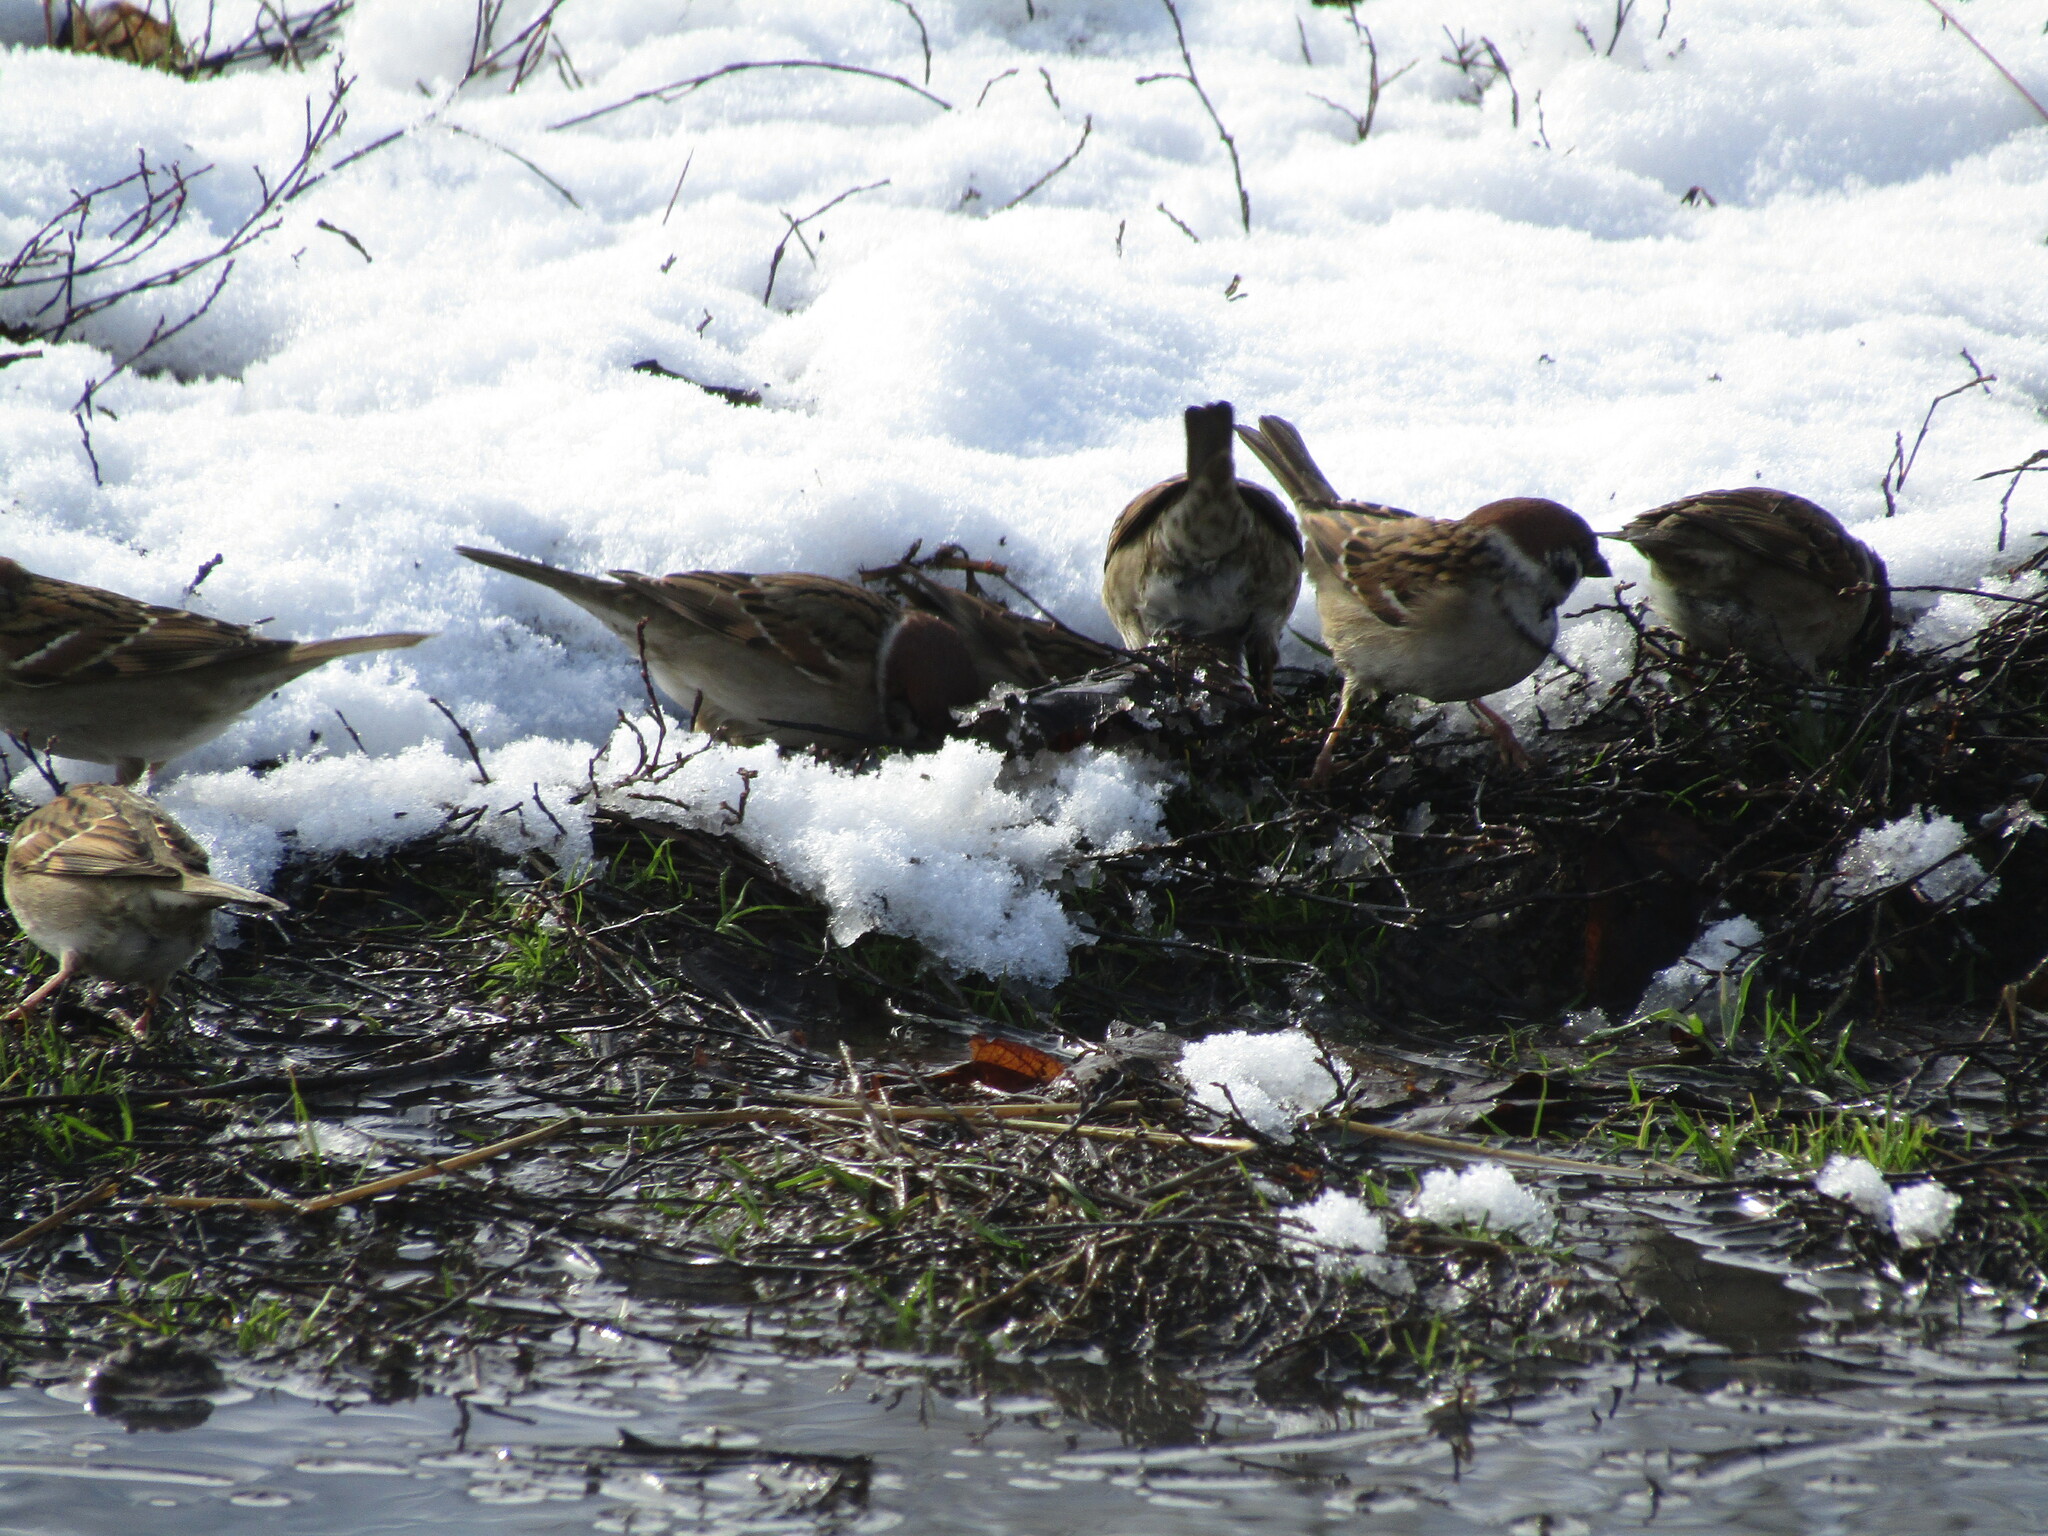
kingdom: Animalia
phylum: Chordata
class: Aves
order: Passeriformes
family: Passeridae
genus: Passer
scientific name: Passer montanus
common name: Eurasian tree sparrow
